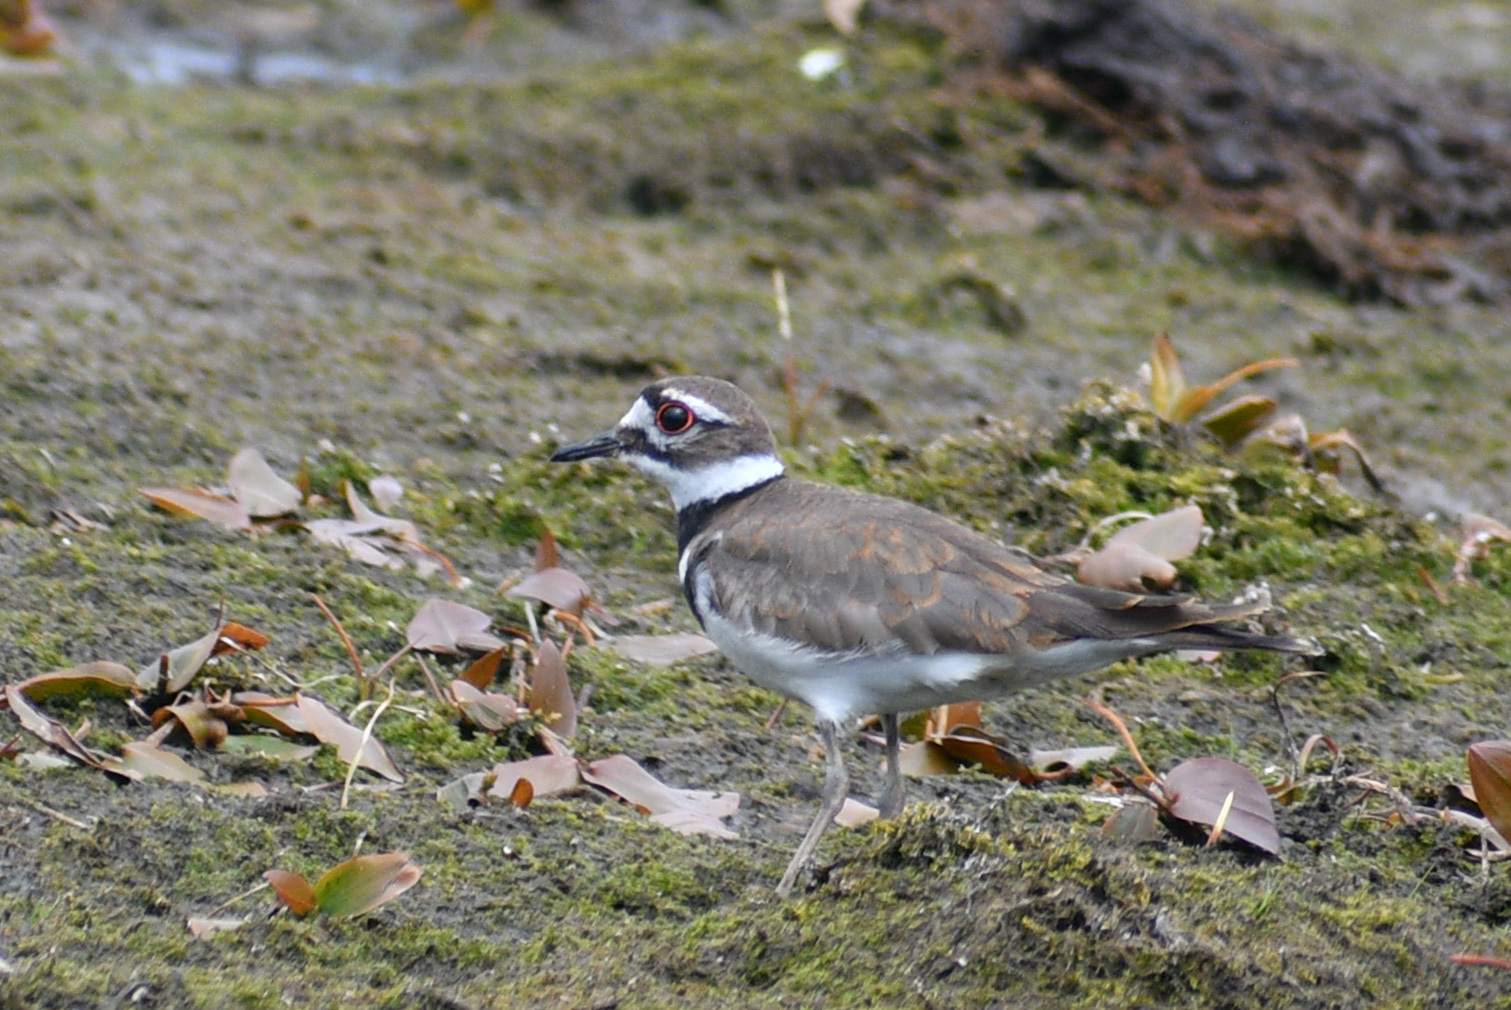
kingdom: Animalia
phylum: Chordata
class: Aves
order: Charadriiformes
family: Charadriidae
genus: Charadrius
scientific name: Charadrius vociferus
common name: Killdeer
